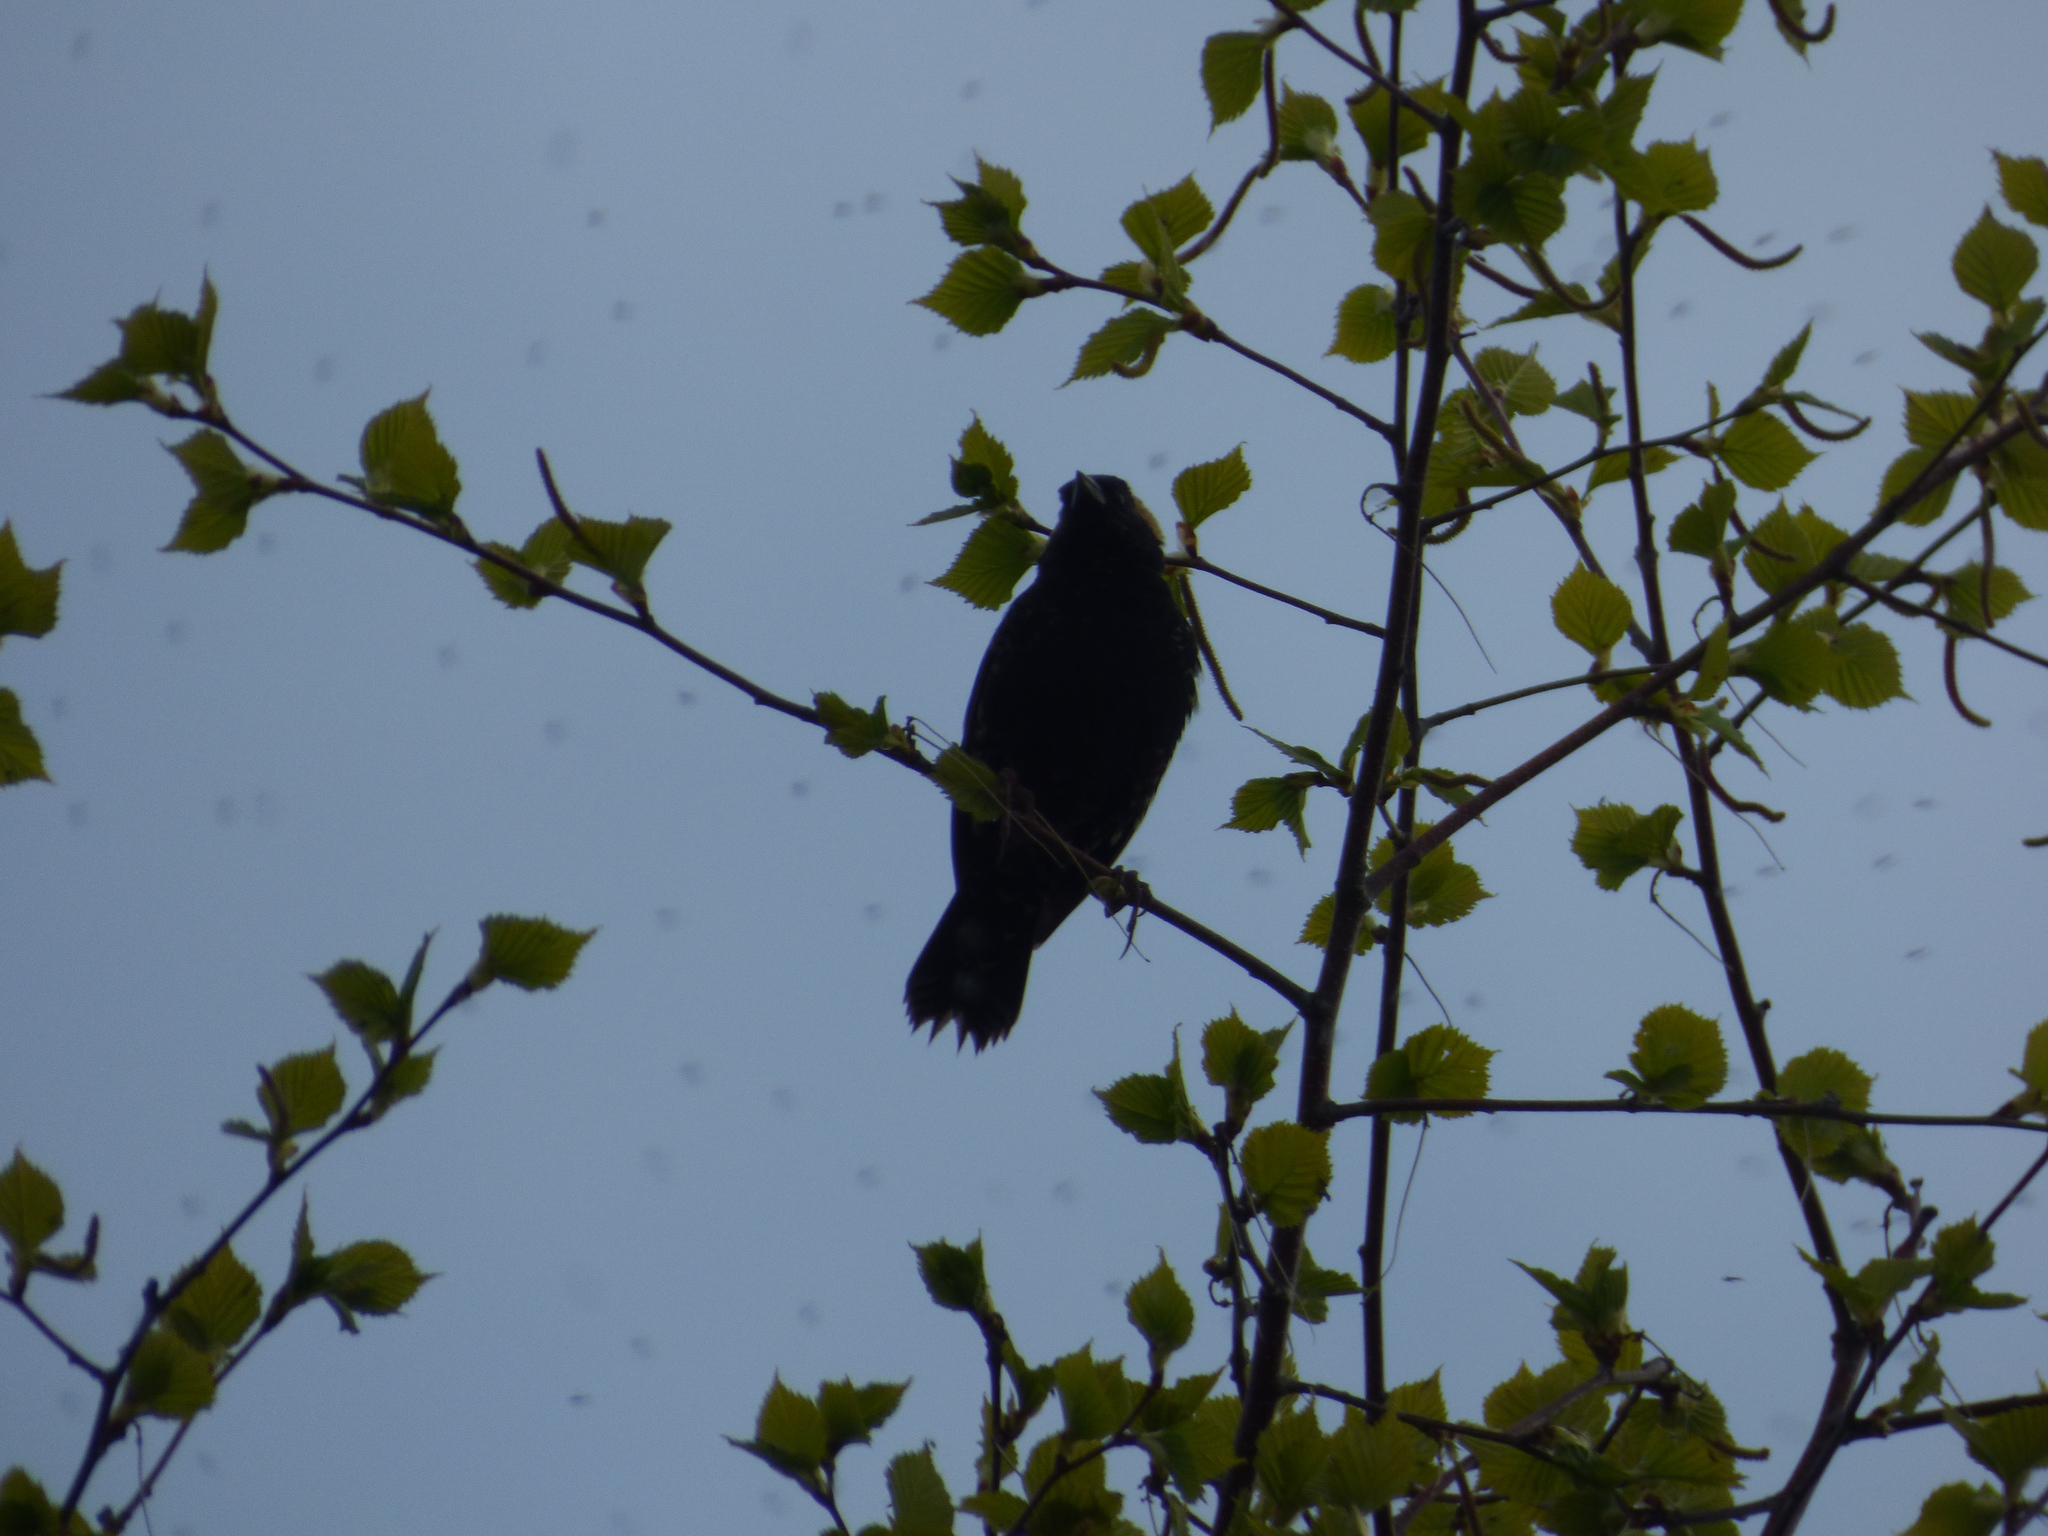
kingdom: Animalia
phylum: Chordata
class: Aves
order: Passeriformes
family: Icteridae
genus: Dolichonyx
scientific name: Dolichonyx oryzivorus
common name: Bobolink
